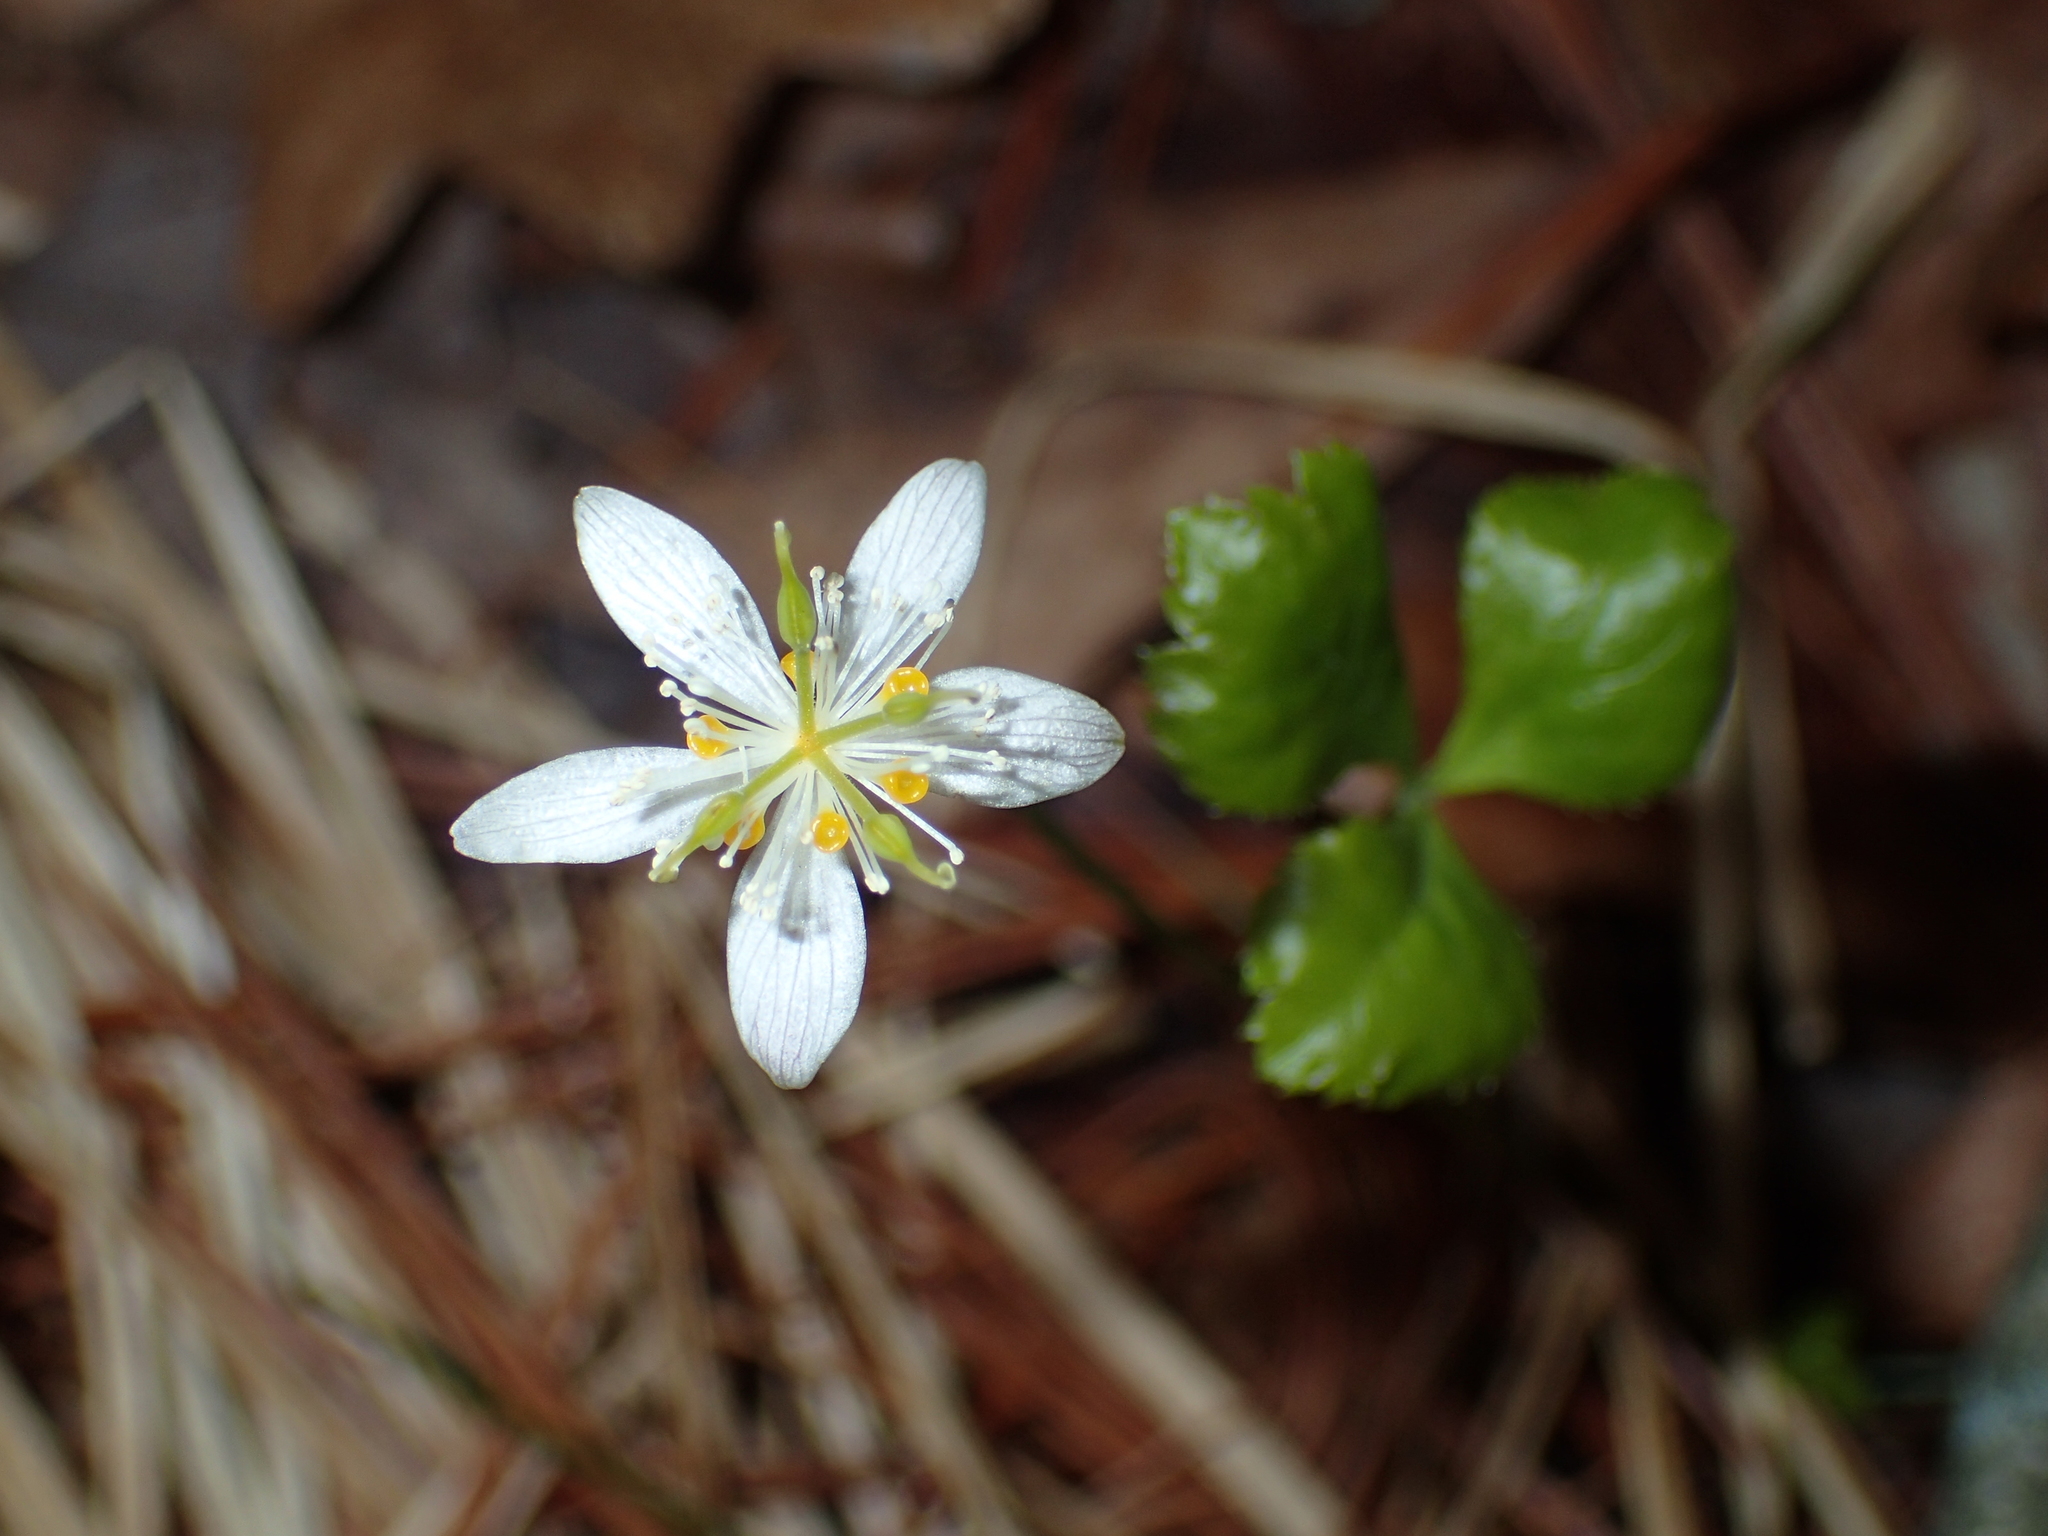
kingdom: Plantae
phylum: Tracheophyta
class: Magnoliopsida
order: Ranunculales
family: Ranunculaceae
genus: Coptis
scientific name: Coptis trifolia
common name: Canker-root
